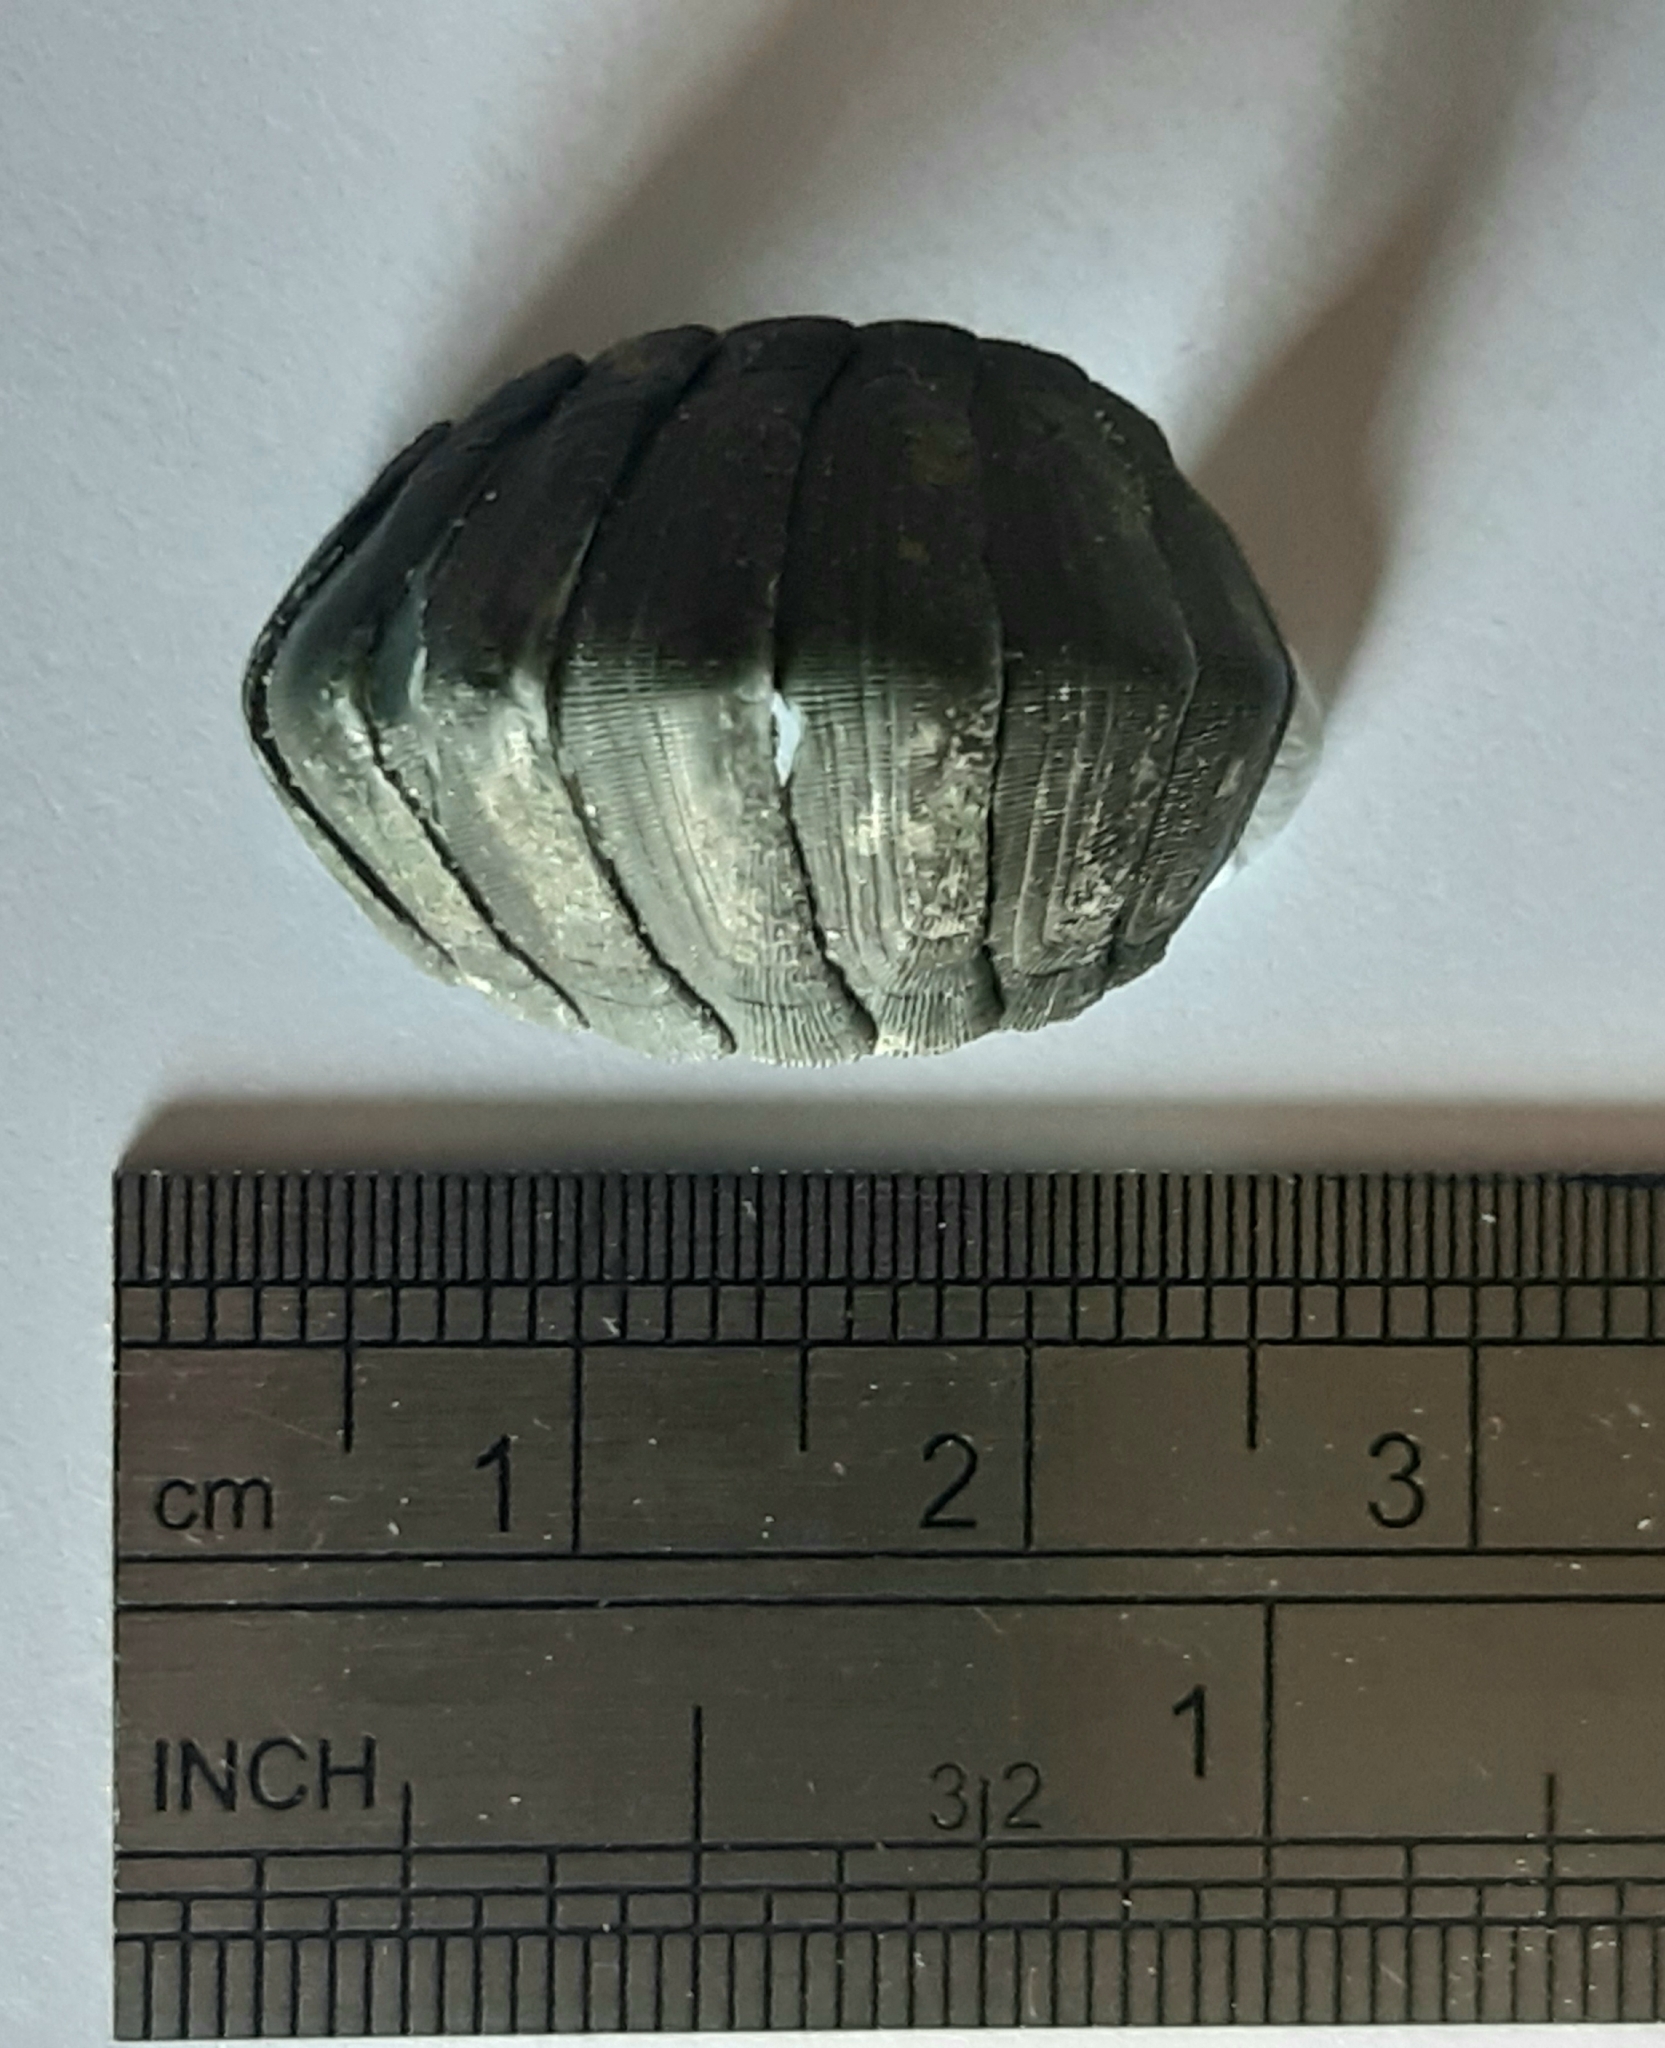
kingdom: Animalia
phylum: Mollusca
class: Polyplacophora
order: Chitonida
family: Chitonidae
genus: Chiton
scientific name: Chiton glaucus
